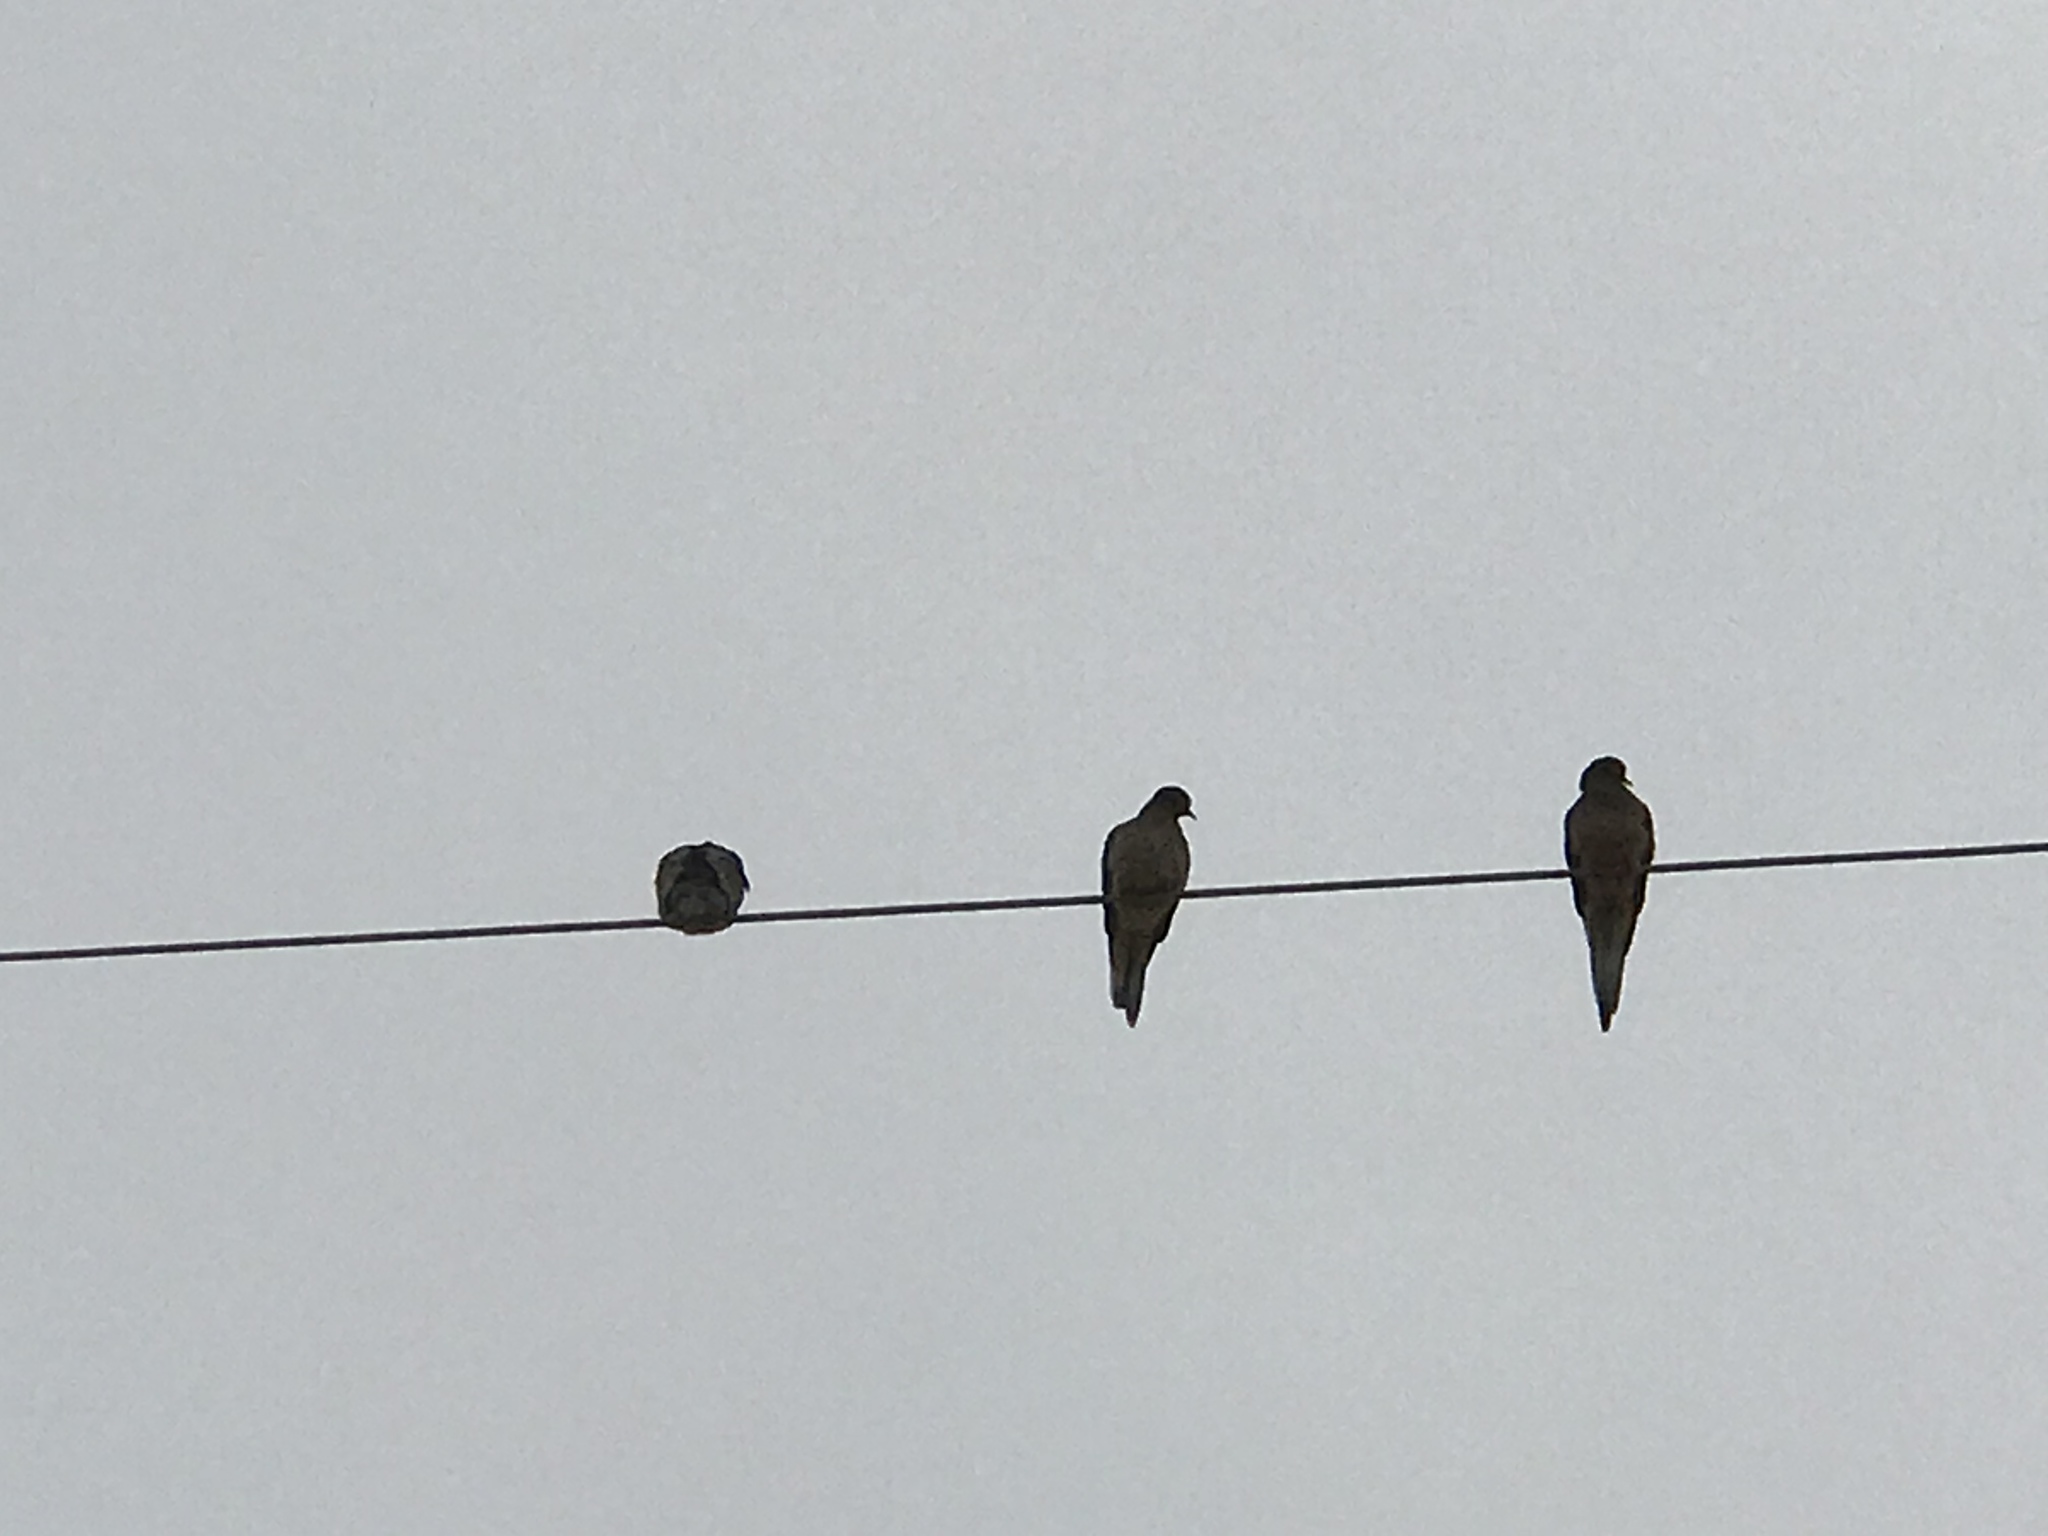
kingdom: Animalia
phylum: Chordata
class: Aves
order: Columbiformes
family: Columbidae
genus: Zenaida
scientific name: Zenaida macroura
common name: Mourning dove
